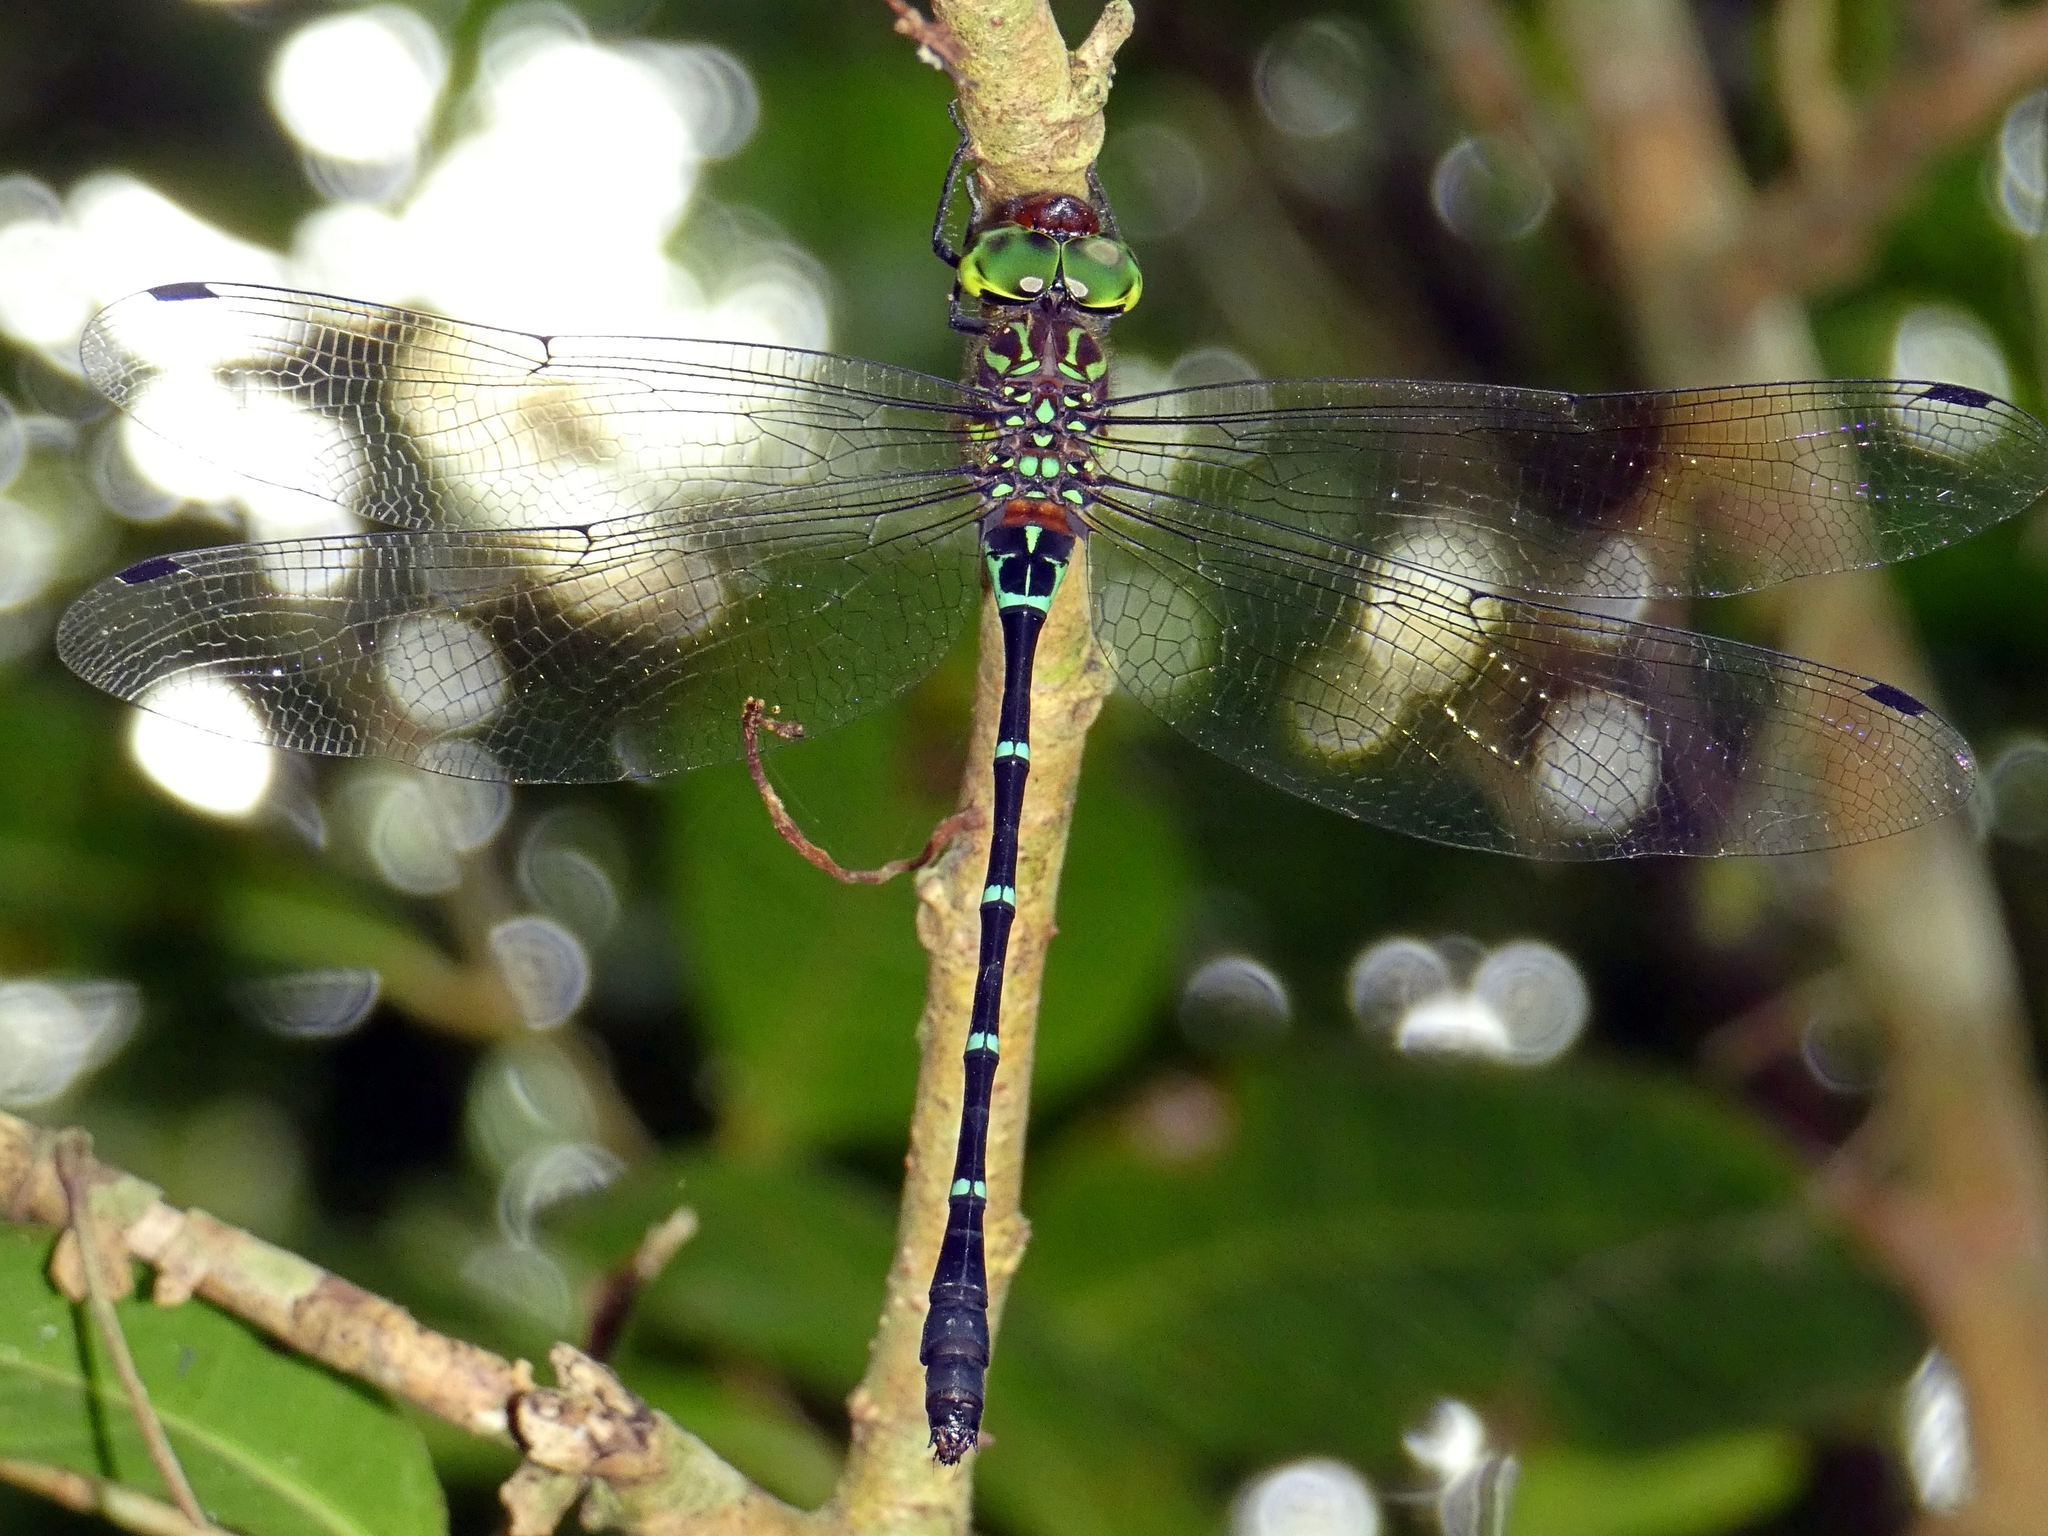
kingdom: Animalia
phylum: Arthropoda
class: Insecta
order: Odonata
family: Aeshnidae
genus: Dromaeschna
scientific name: Dromaeschna forcipata
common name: Green-striped darner
